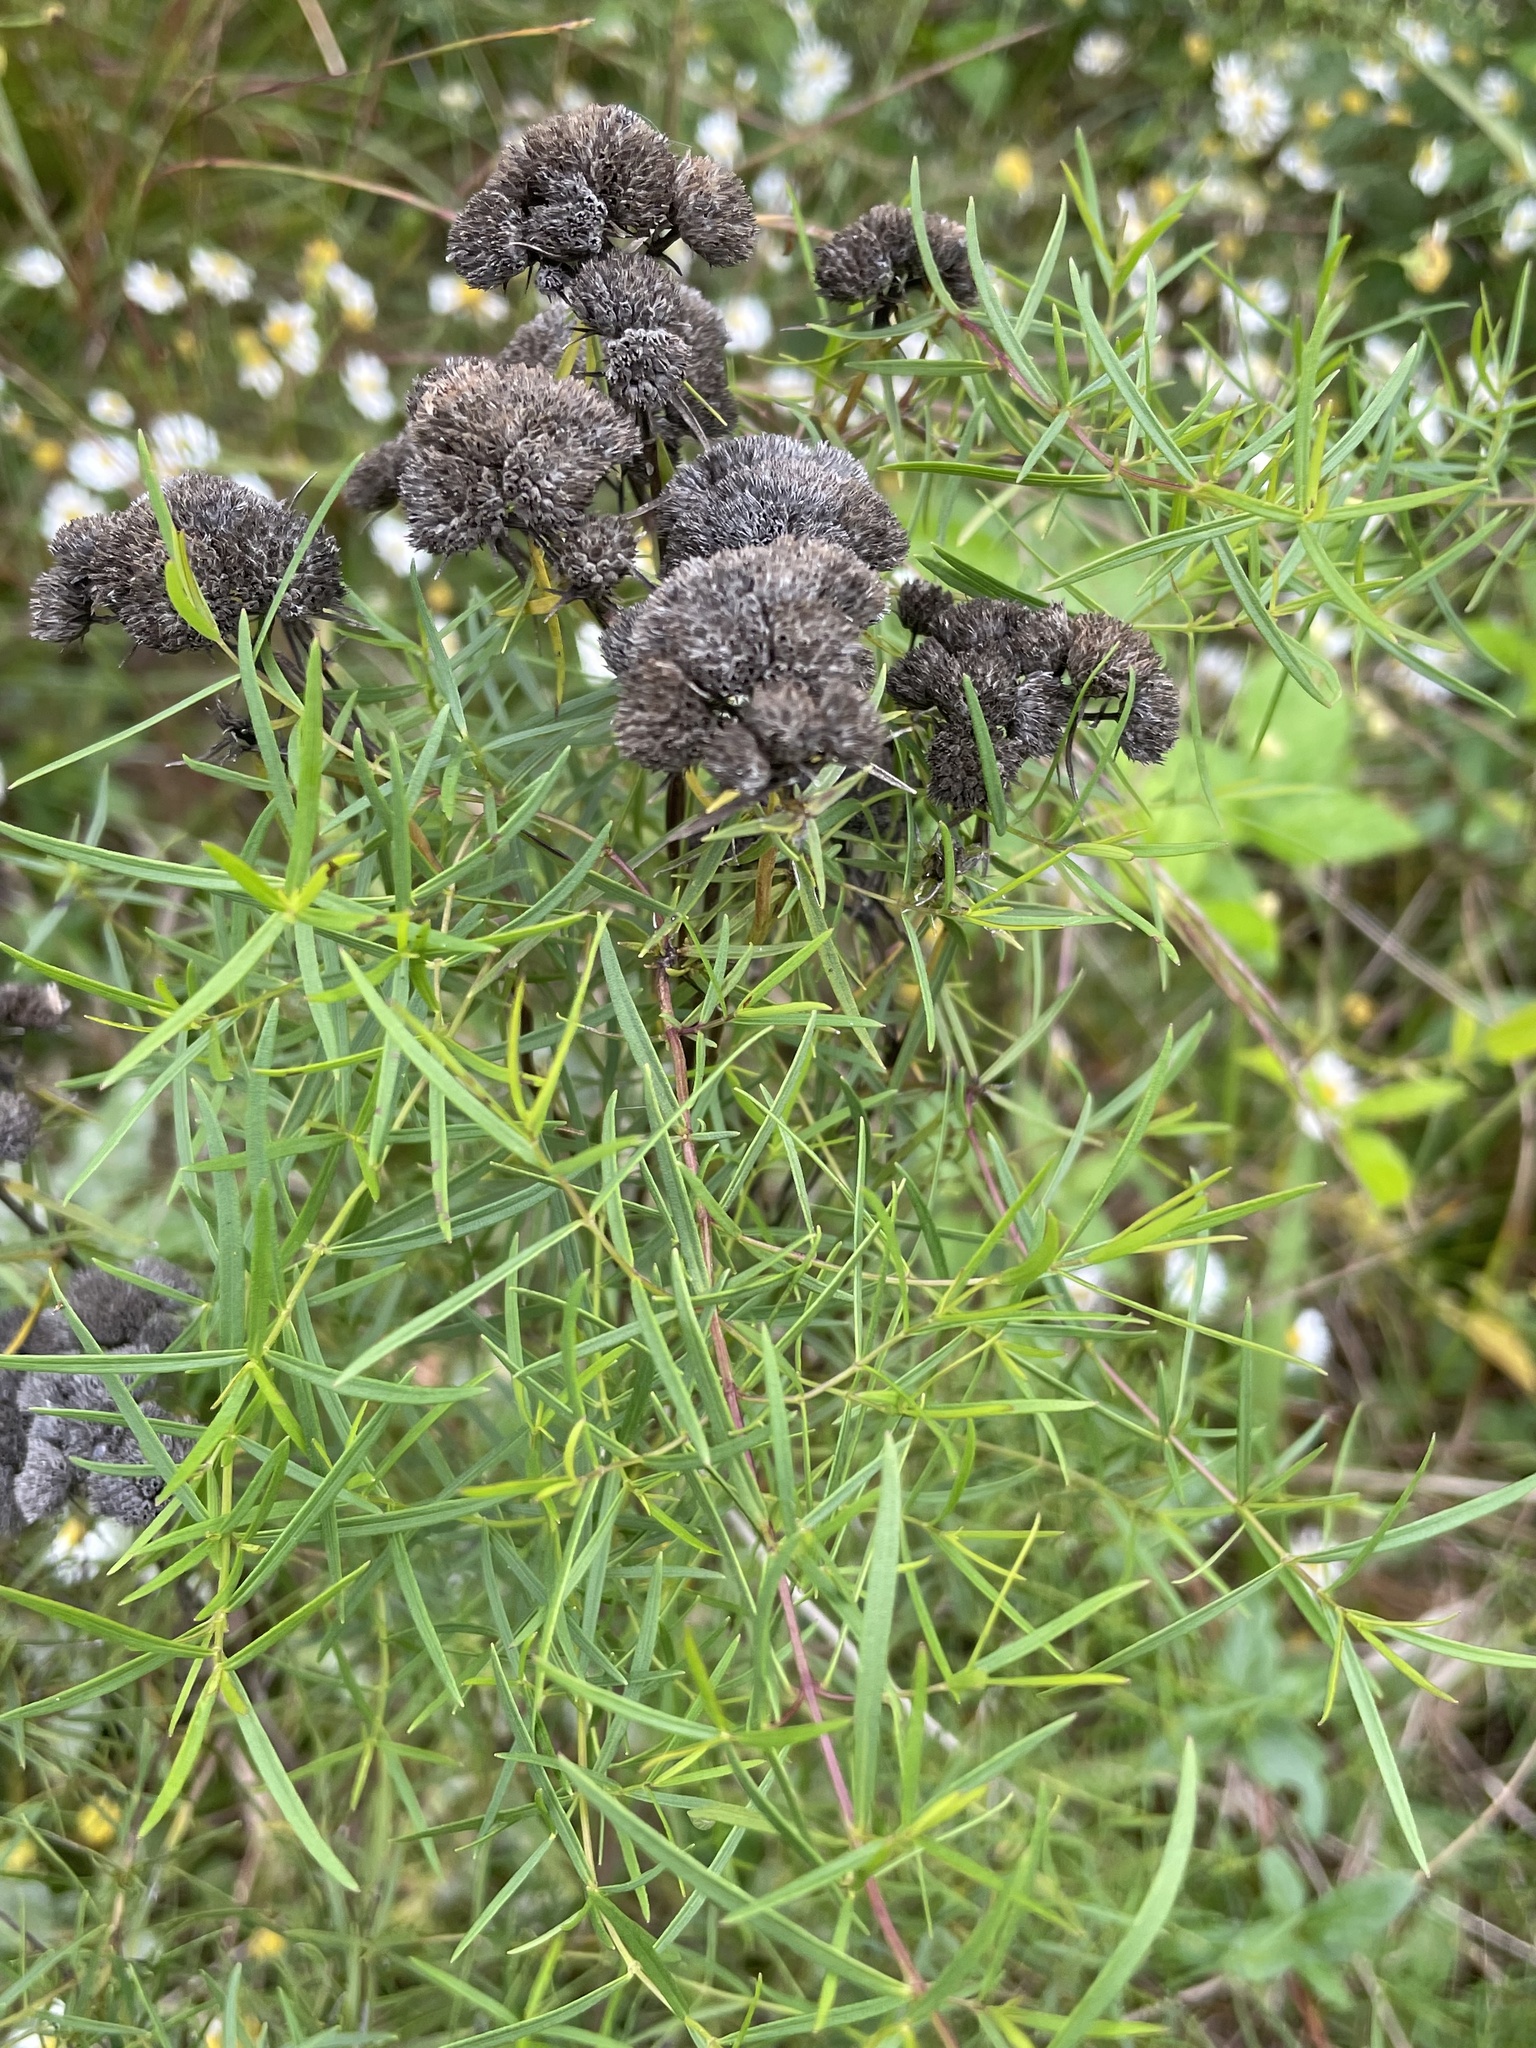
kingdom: Plantae
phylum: Tracheophyta
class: Magnoliopsida
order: Lamiales
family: Lamiaceae
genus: Pycnanthemum
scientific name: Pycnanthemum tenuifolium
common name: Narrow-leaf mountain-mint
